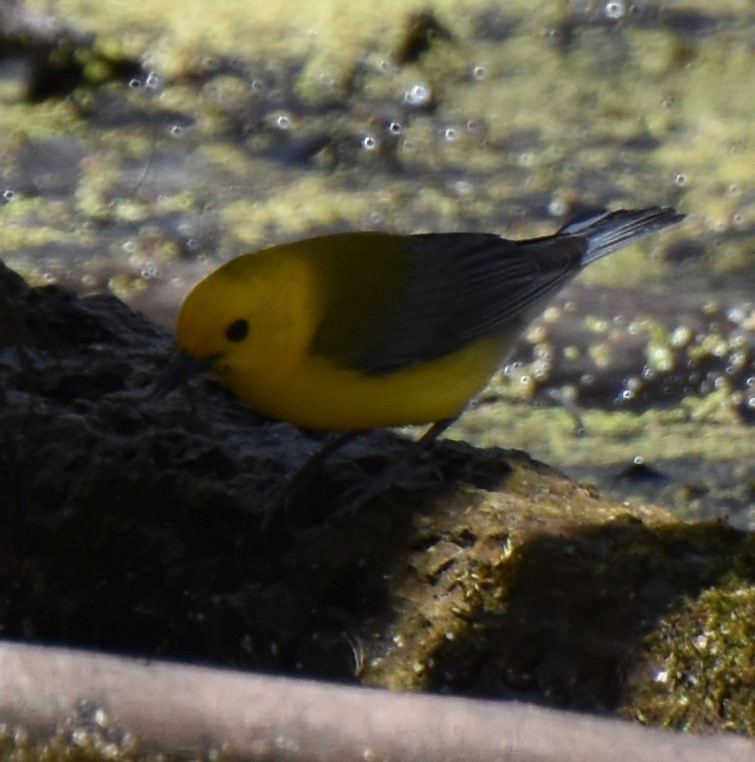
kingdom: Animalia
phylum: Chordata
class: Aves
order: Passeriformes
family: Parulidae
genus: Protonotaria
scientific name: Protonotaria citrea
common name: Prothonotary warbler
